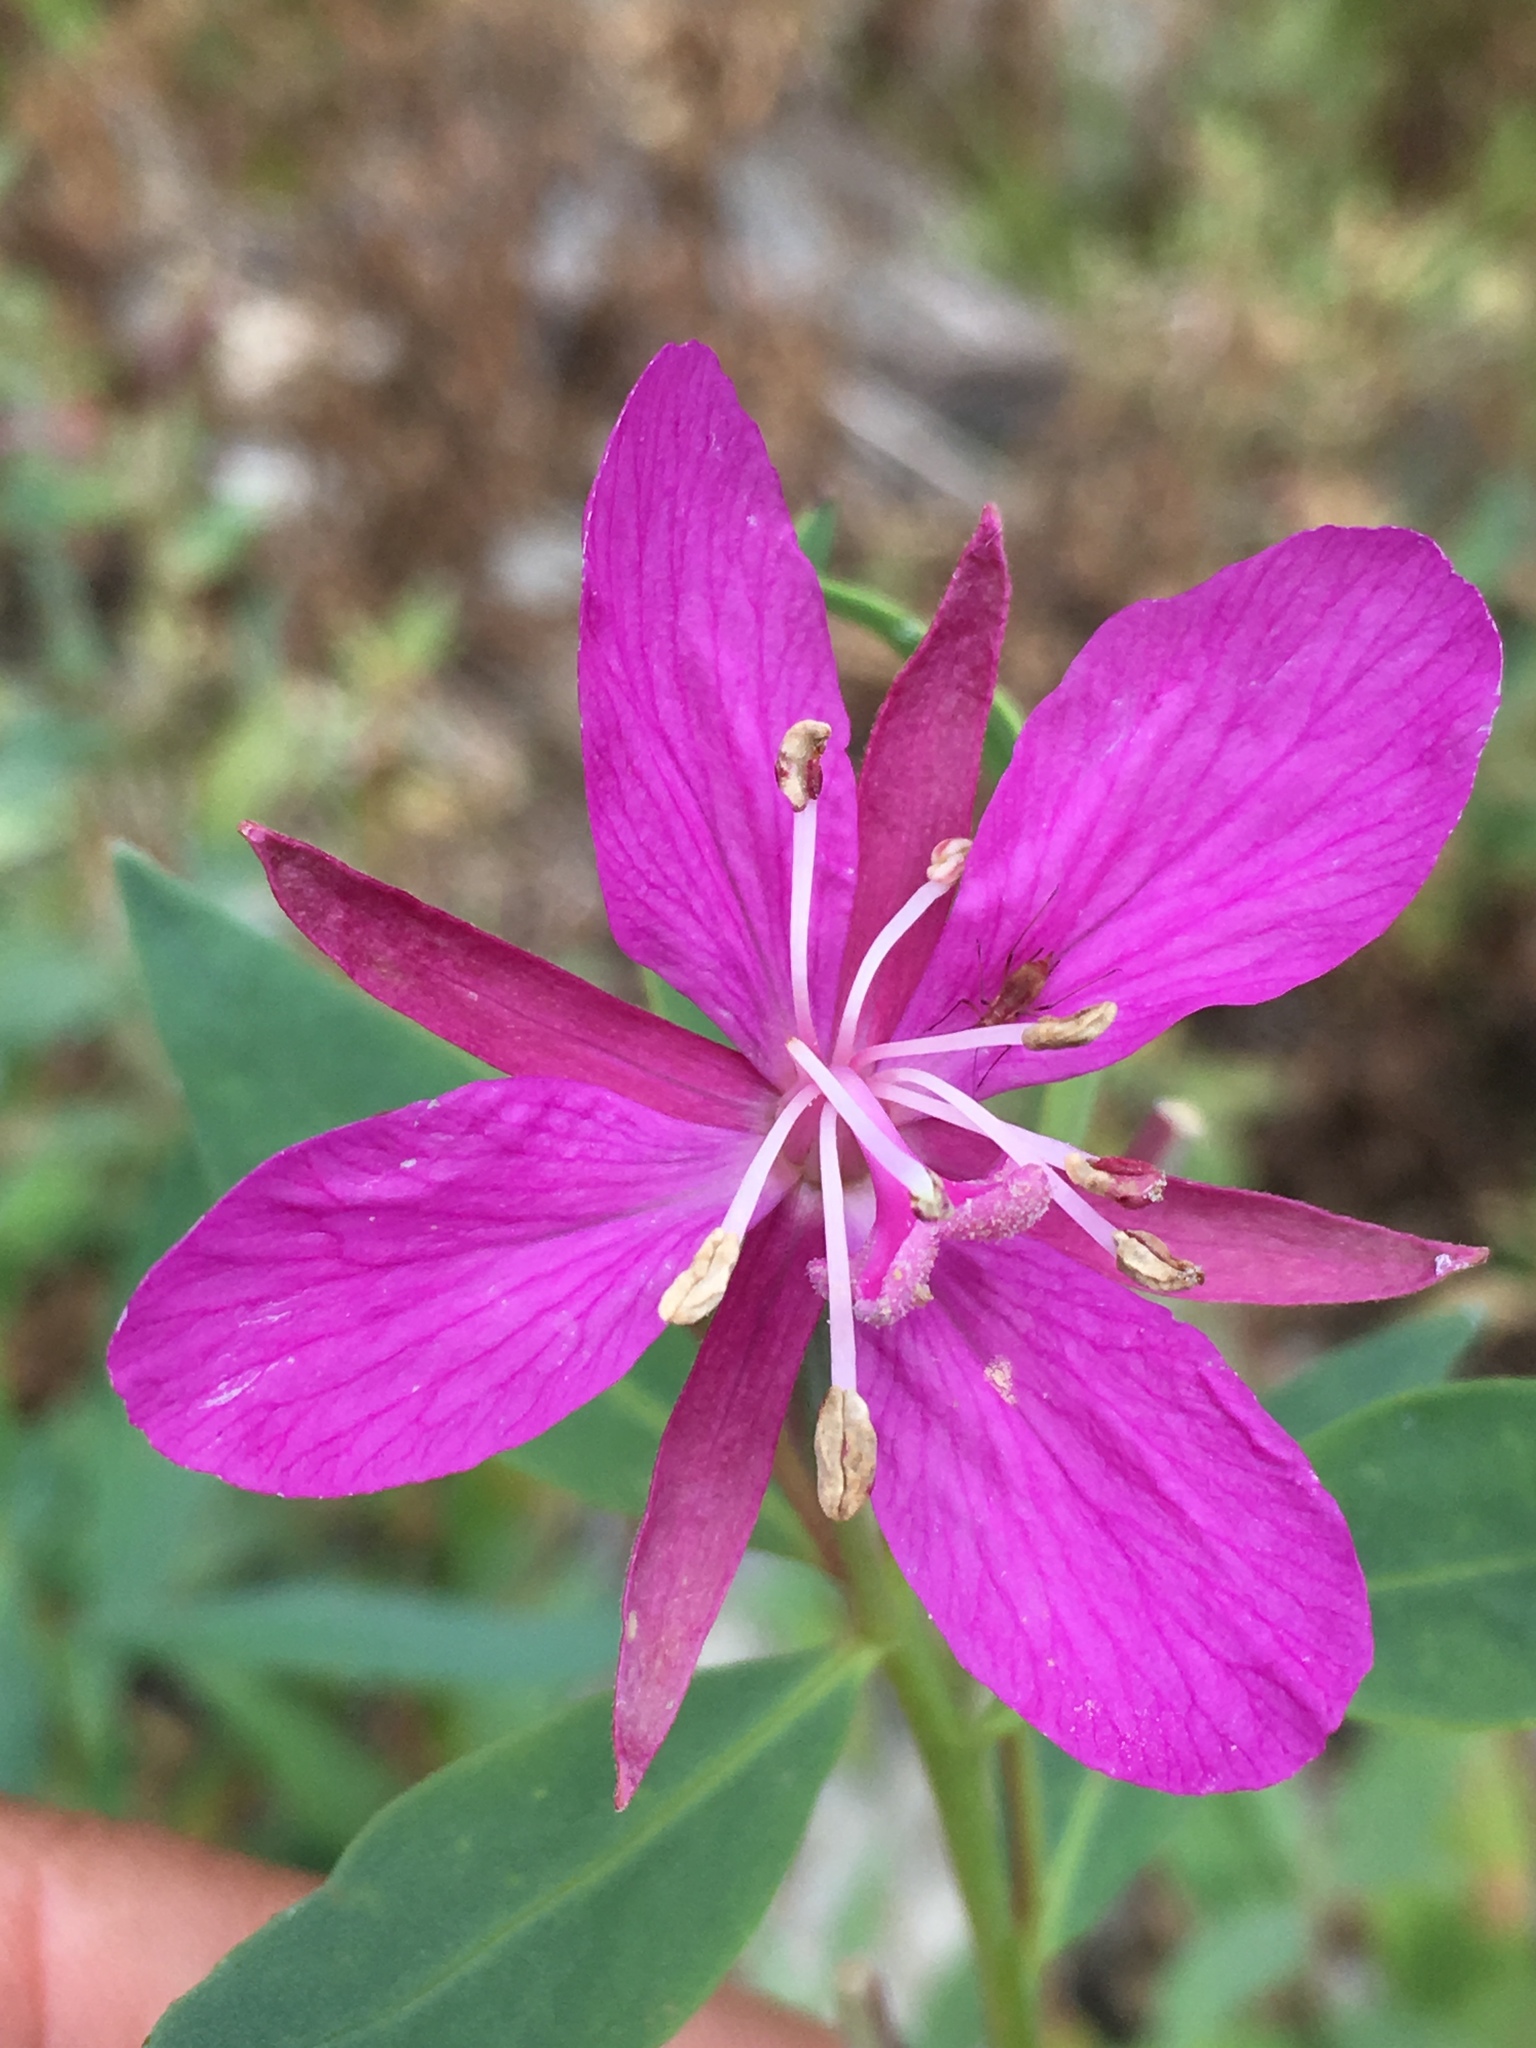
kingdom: Plantae
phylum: Tracheophyta
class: Magnoliopsida
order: Myrtales
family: Onagraceae
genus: Chamaenerion
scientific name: Chamaenerion latifolium
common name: Dwarf fireweed
